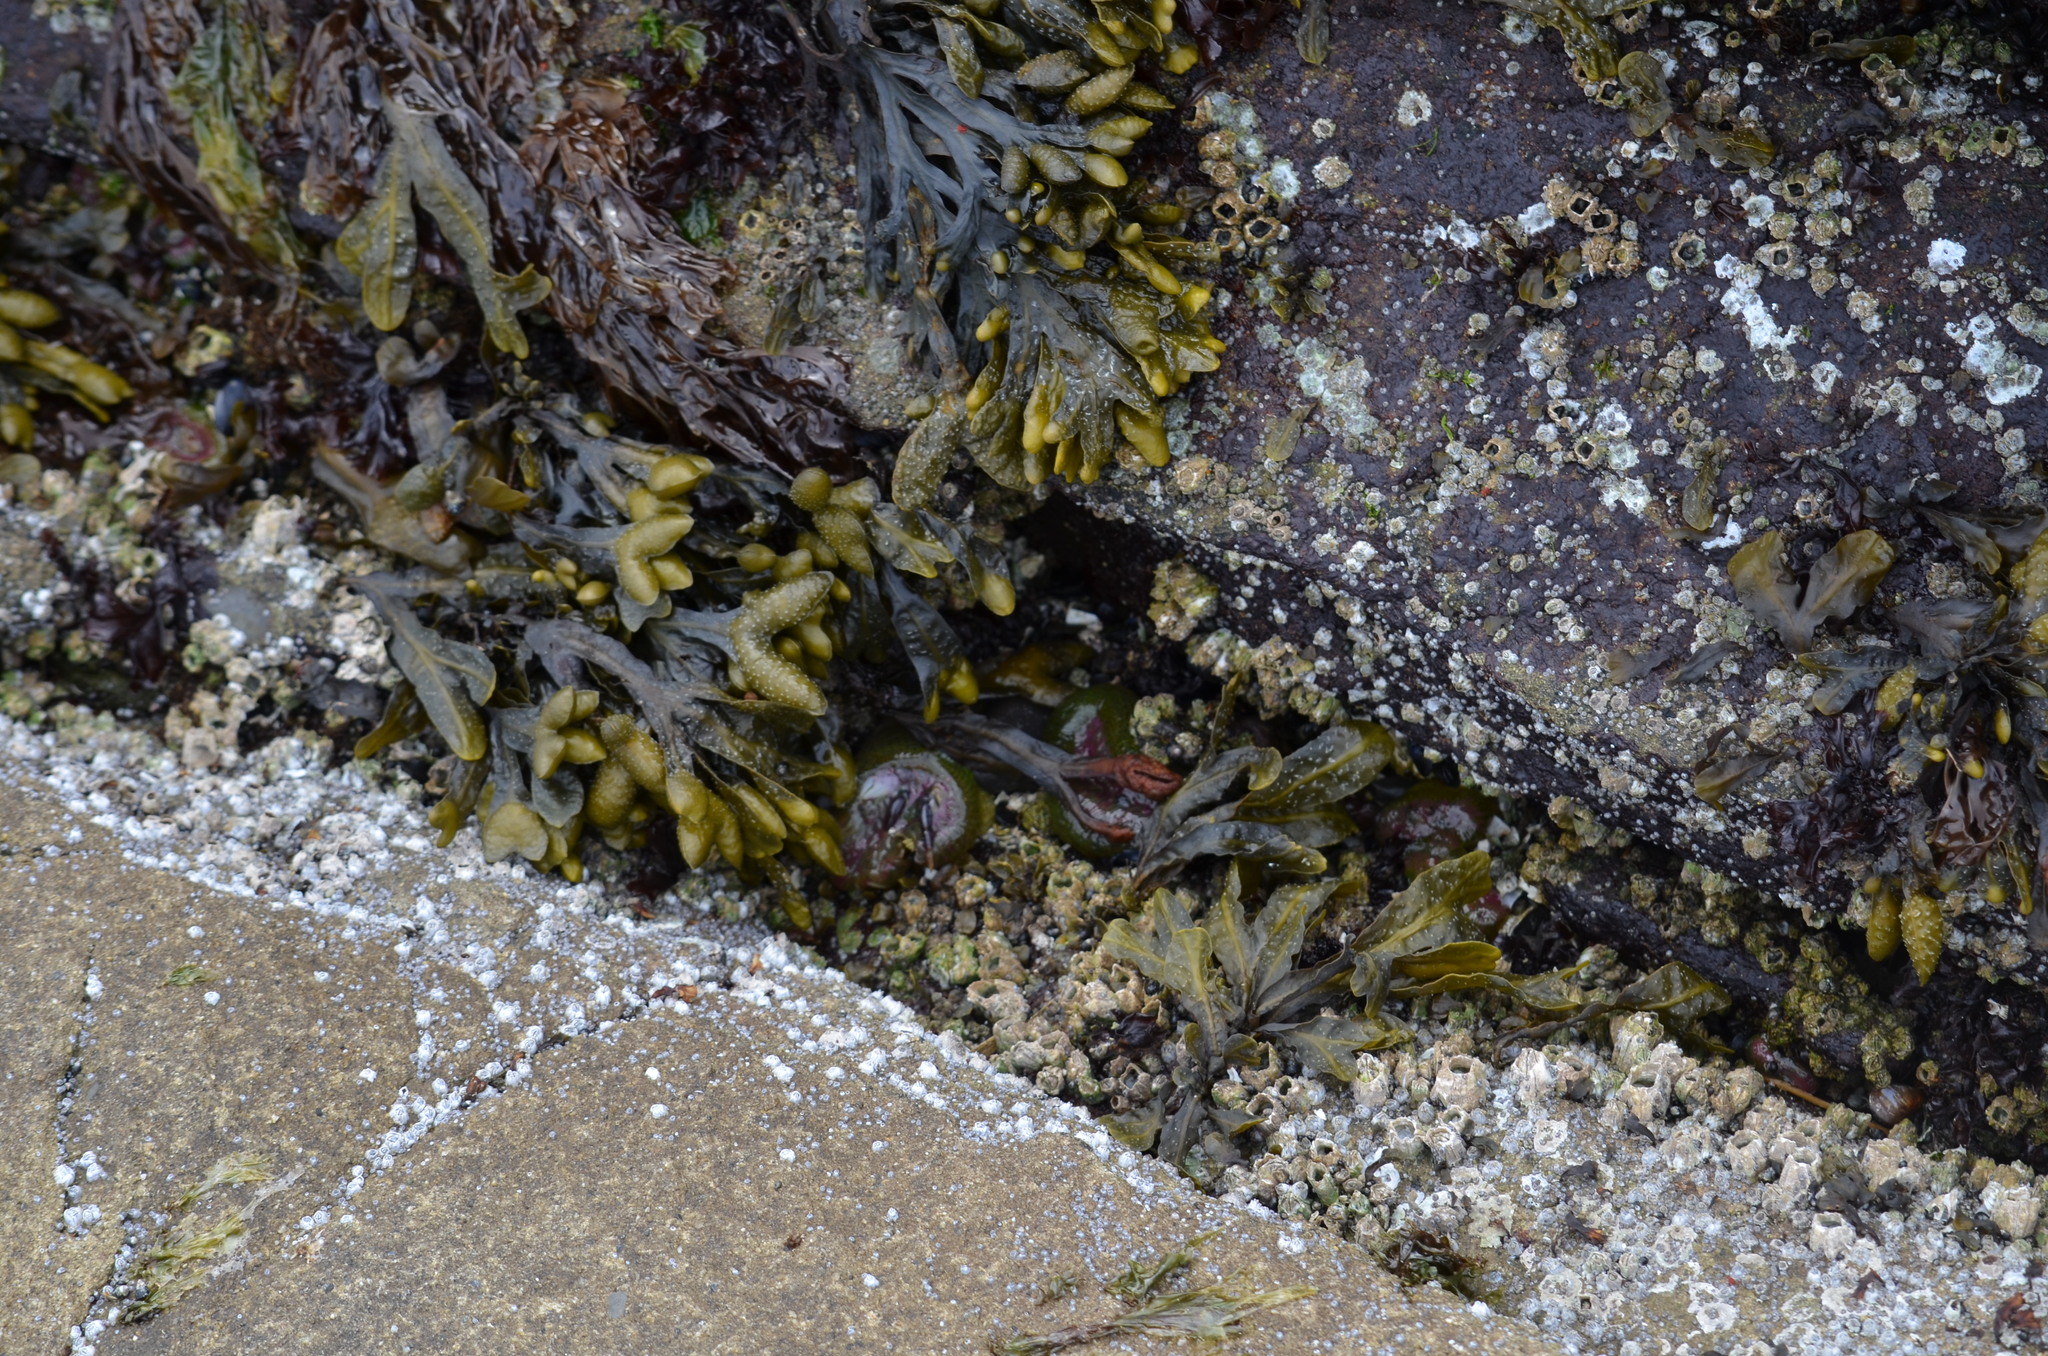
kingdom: Animalia
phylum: Cnidaria
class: Anthozoa
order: Actiniaria
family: Actiniidae
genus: Anthopleura
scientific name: Anthopleura elegantissima
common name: Clonal anemone
